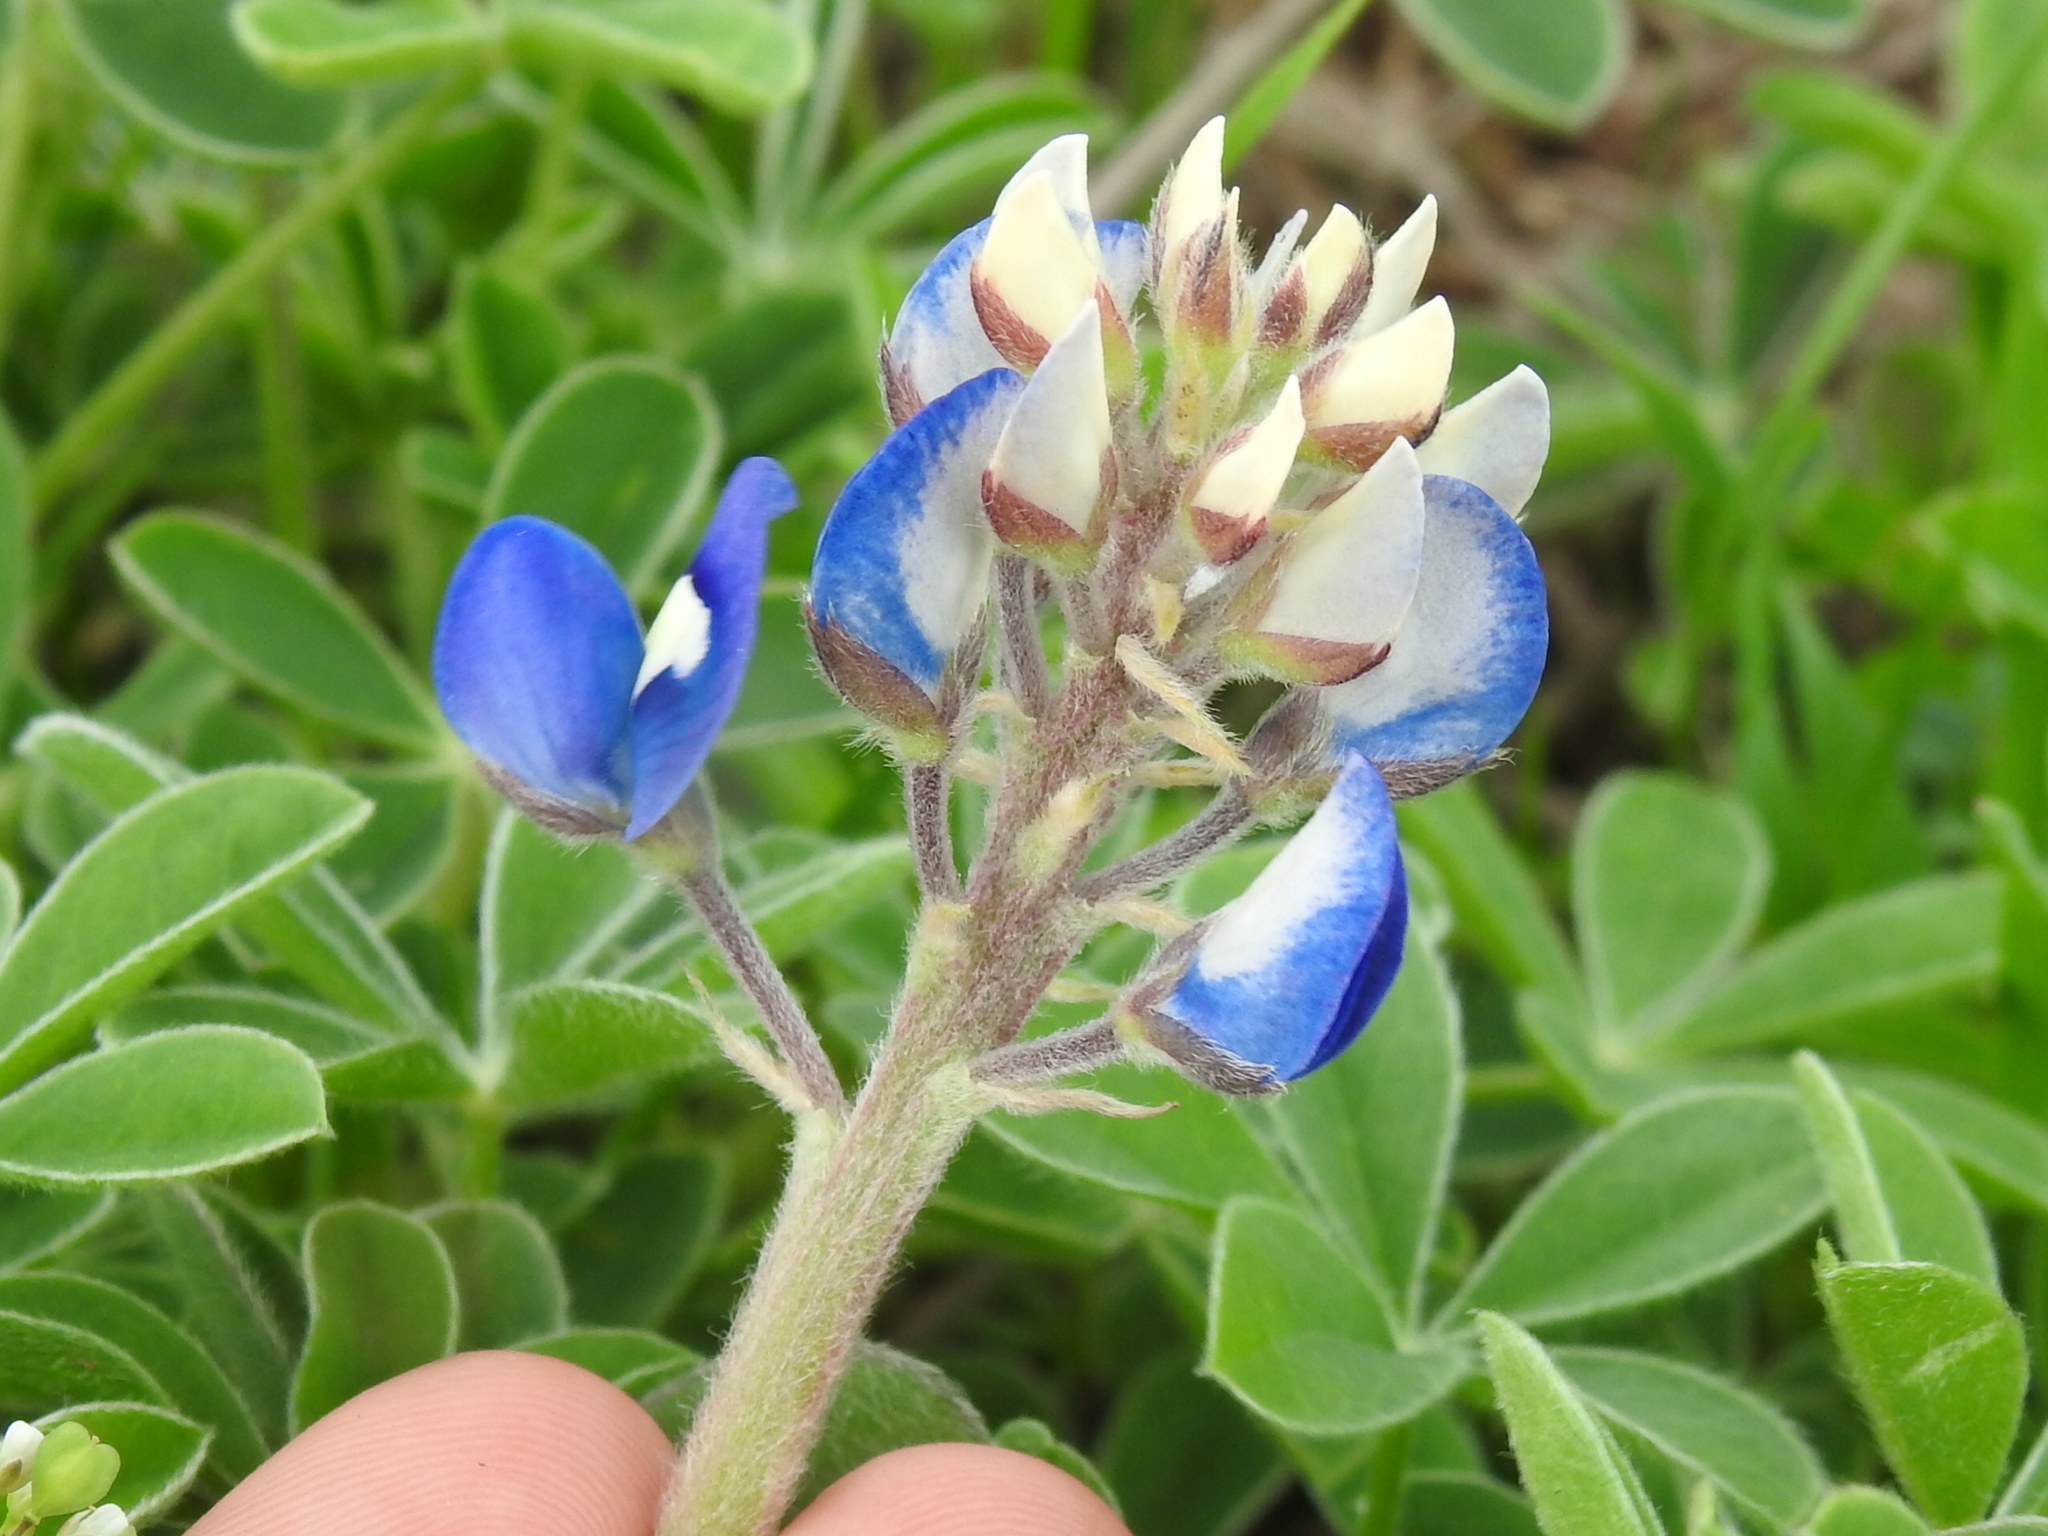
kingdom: Plantae
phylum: Tracheophyta
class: Magnoliopsida
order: Fabales
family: Fabaceae
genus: Lupinus
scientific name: Lupinus texensis
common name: Texas bluebonnet
